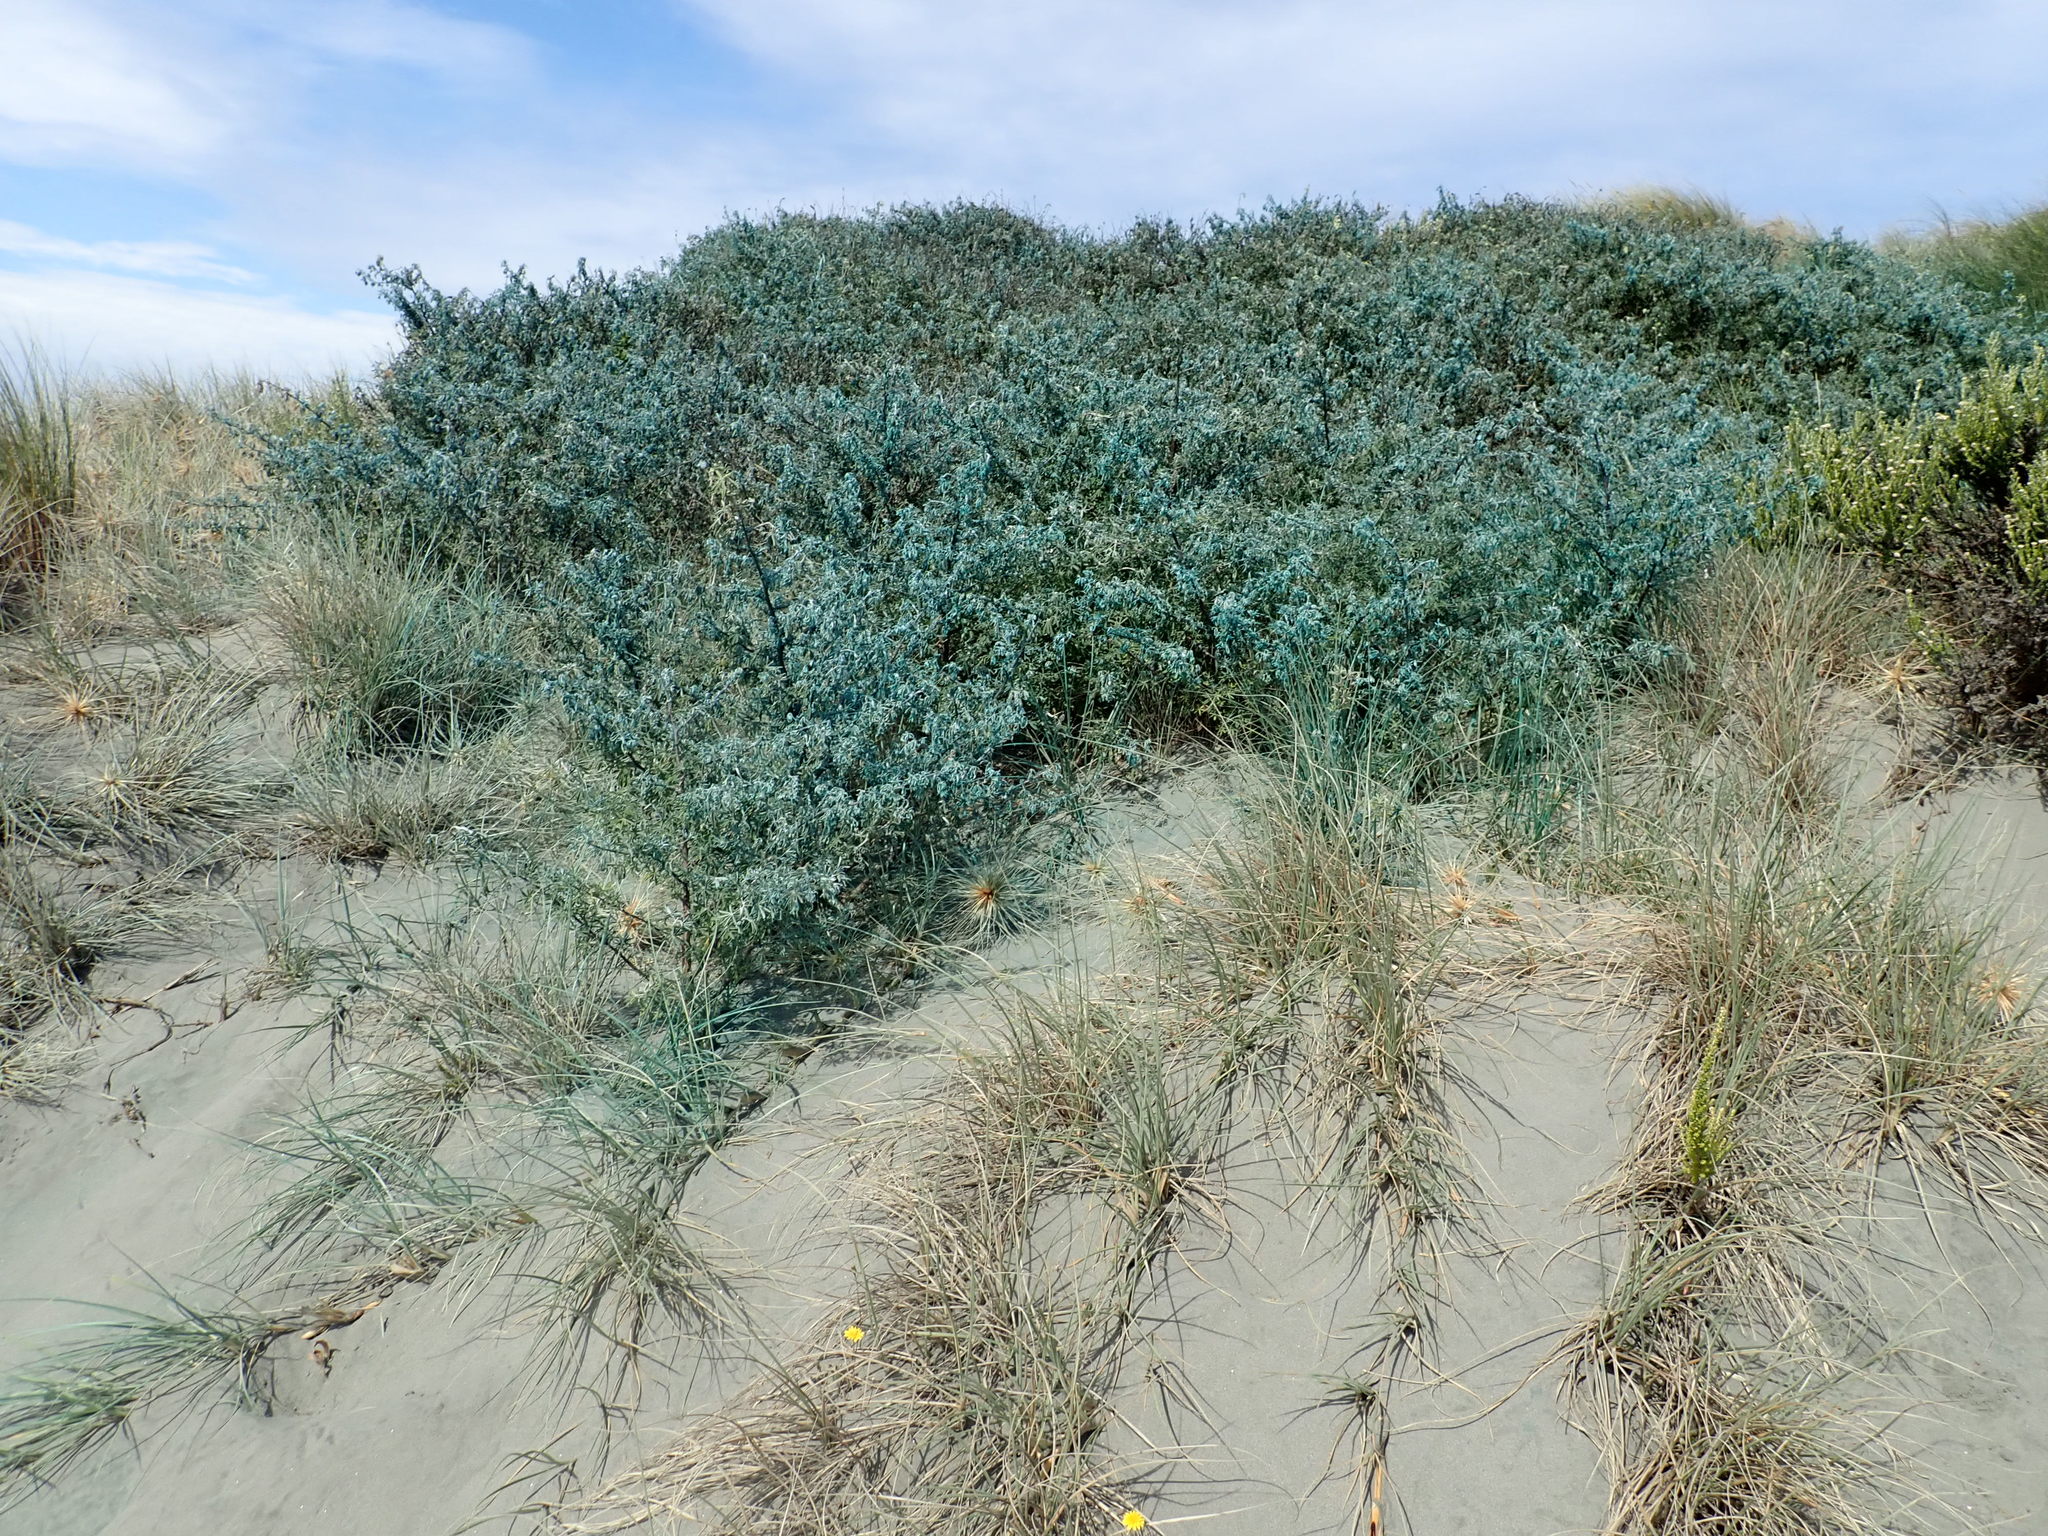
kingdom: Plantae
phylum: Tracheophyta
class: Magnoliopsida
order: Fabales
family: Fabaceae
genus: Lupinus
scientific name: Lupinus arboreus
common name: Yellow bush lupine
